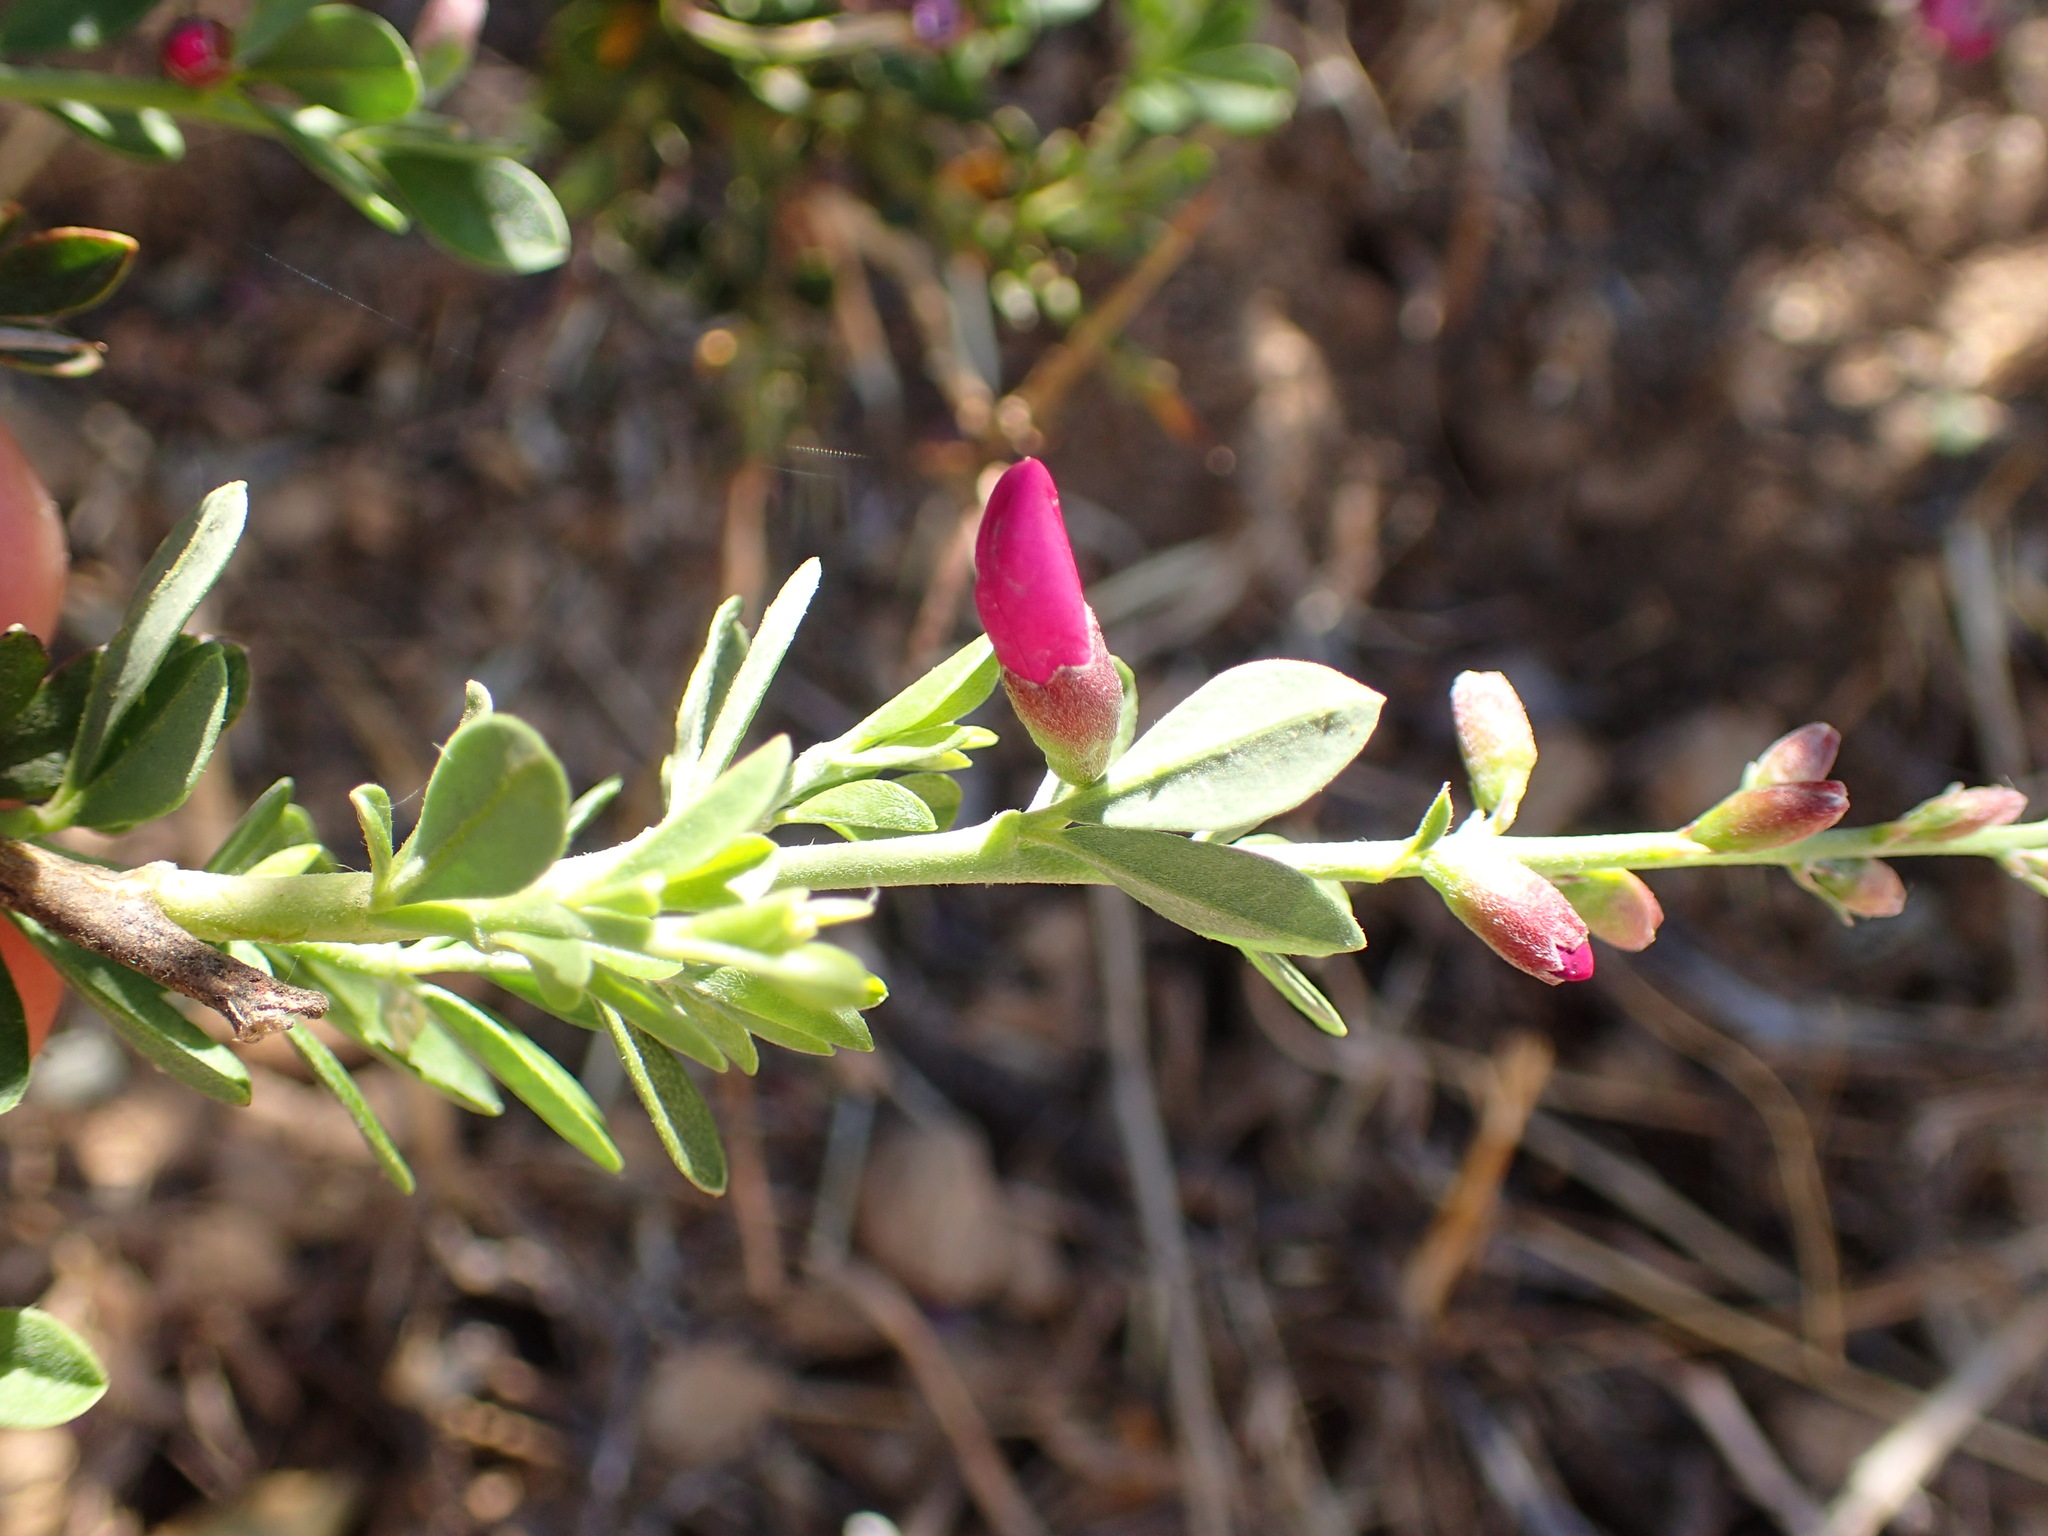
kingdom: Plantae
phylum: Tracheophyta
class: Magnoliopsida
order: Fabales
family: Fabaceae
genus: Pickeringia
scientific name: Pickeringia montana
